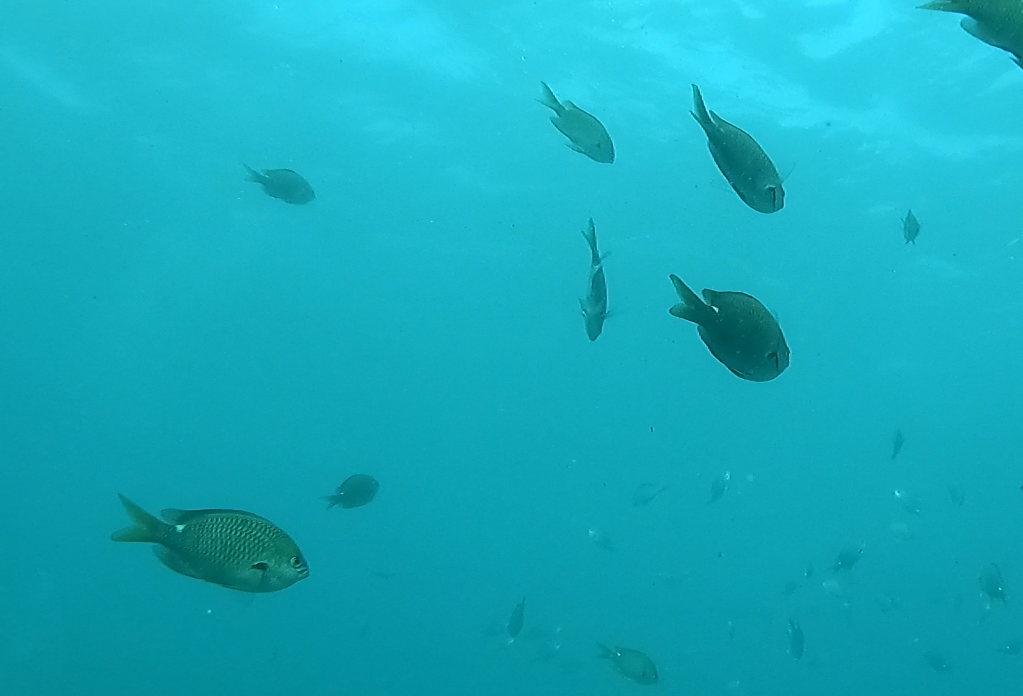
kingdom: Animalia
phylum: Chordata
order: Perciformes
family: Pomacentridae
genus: Chromis
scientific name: Chromis hypsilepis
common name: Brown puller
